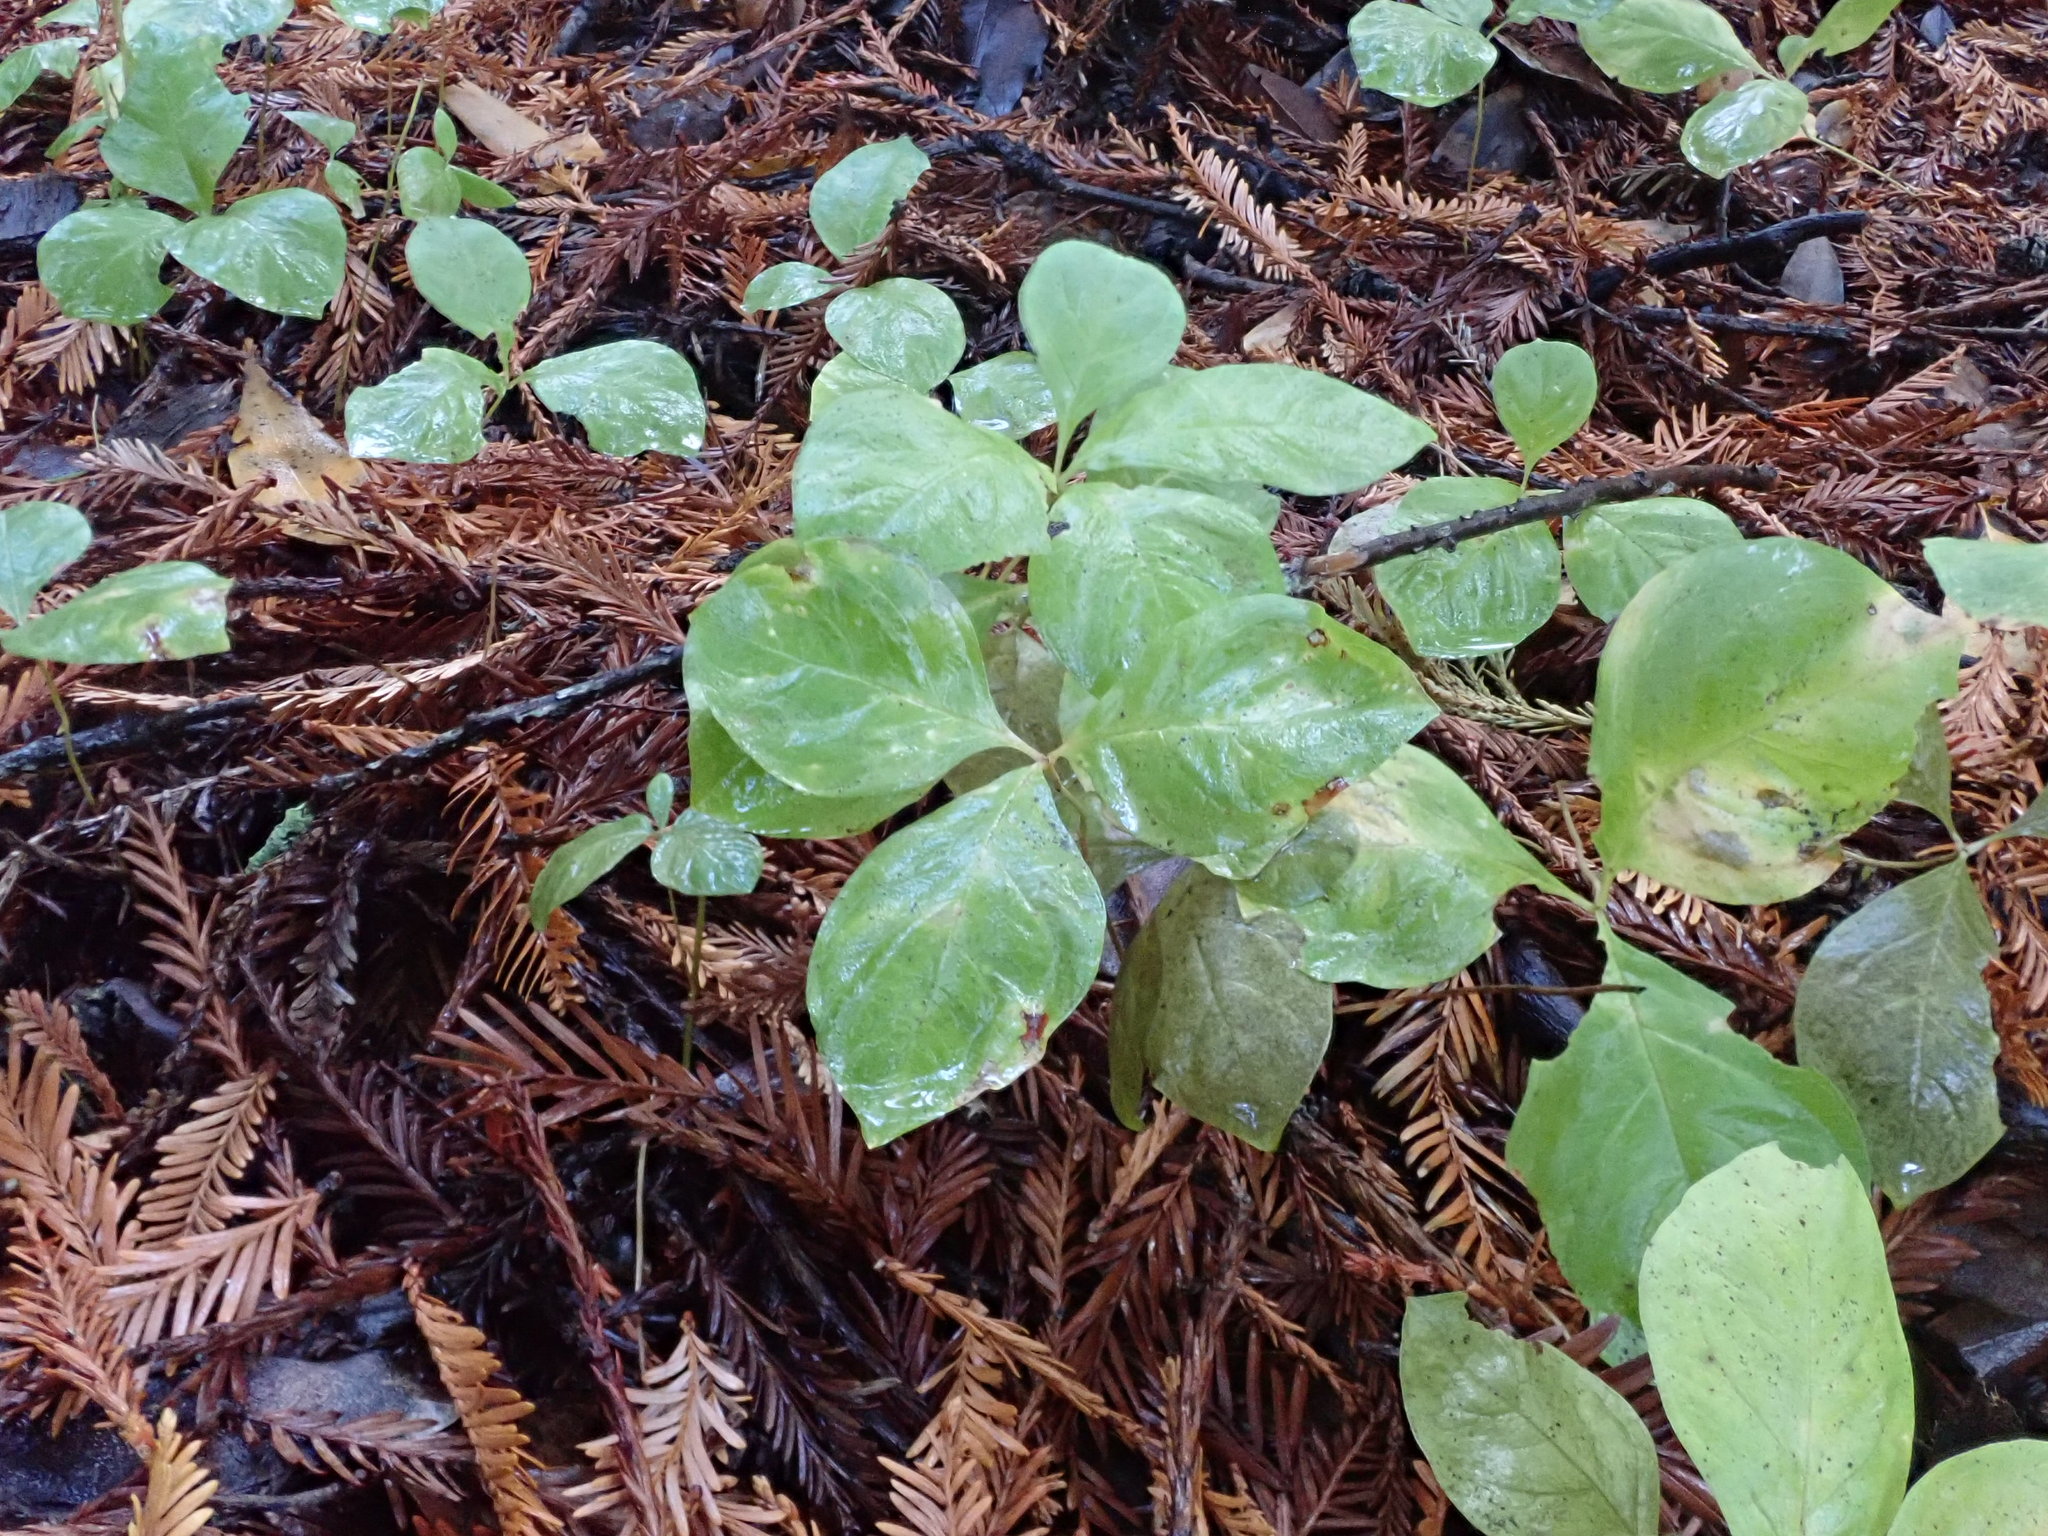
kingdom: Plantae
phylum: Tracheophyta
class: Magnoliopsida
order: Ericales
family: Primulaceae
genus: Lysimachia
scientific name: Lysimachia latifolia
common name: Pacific starflower
